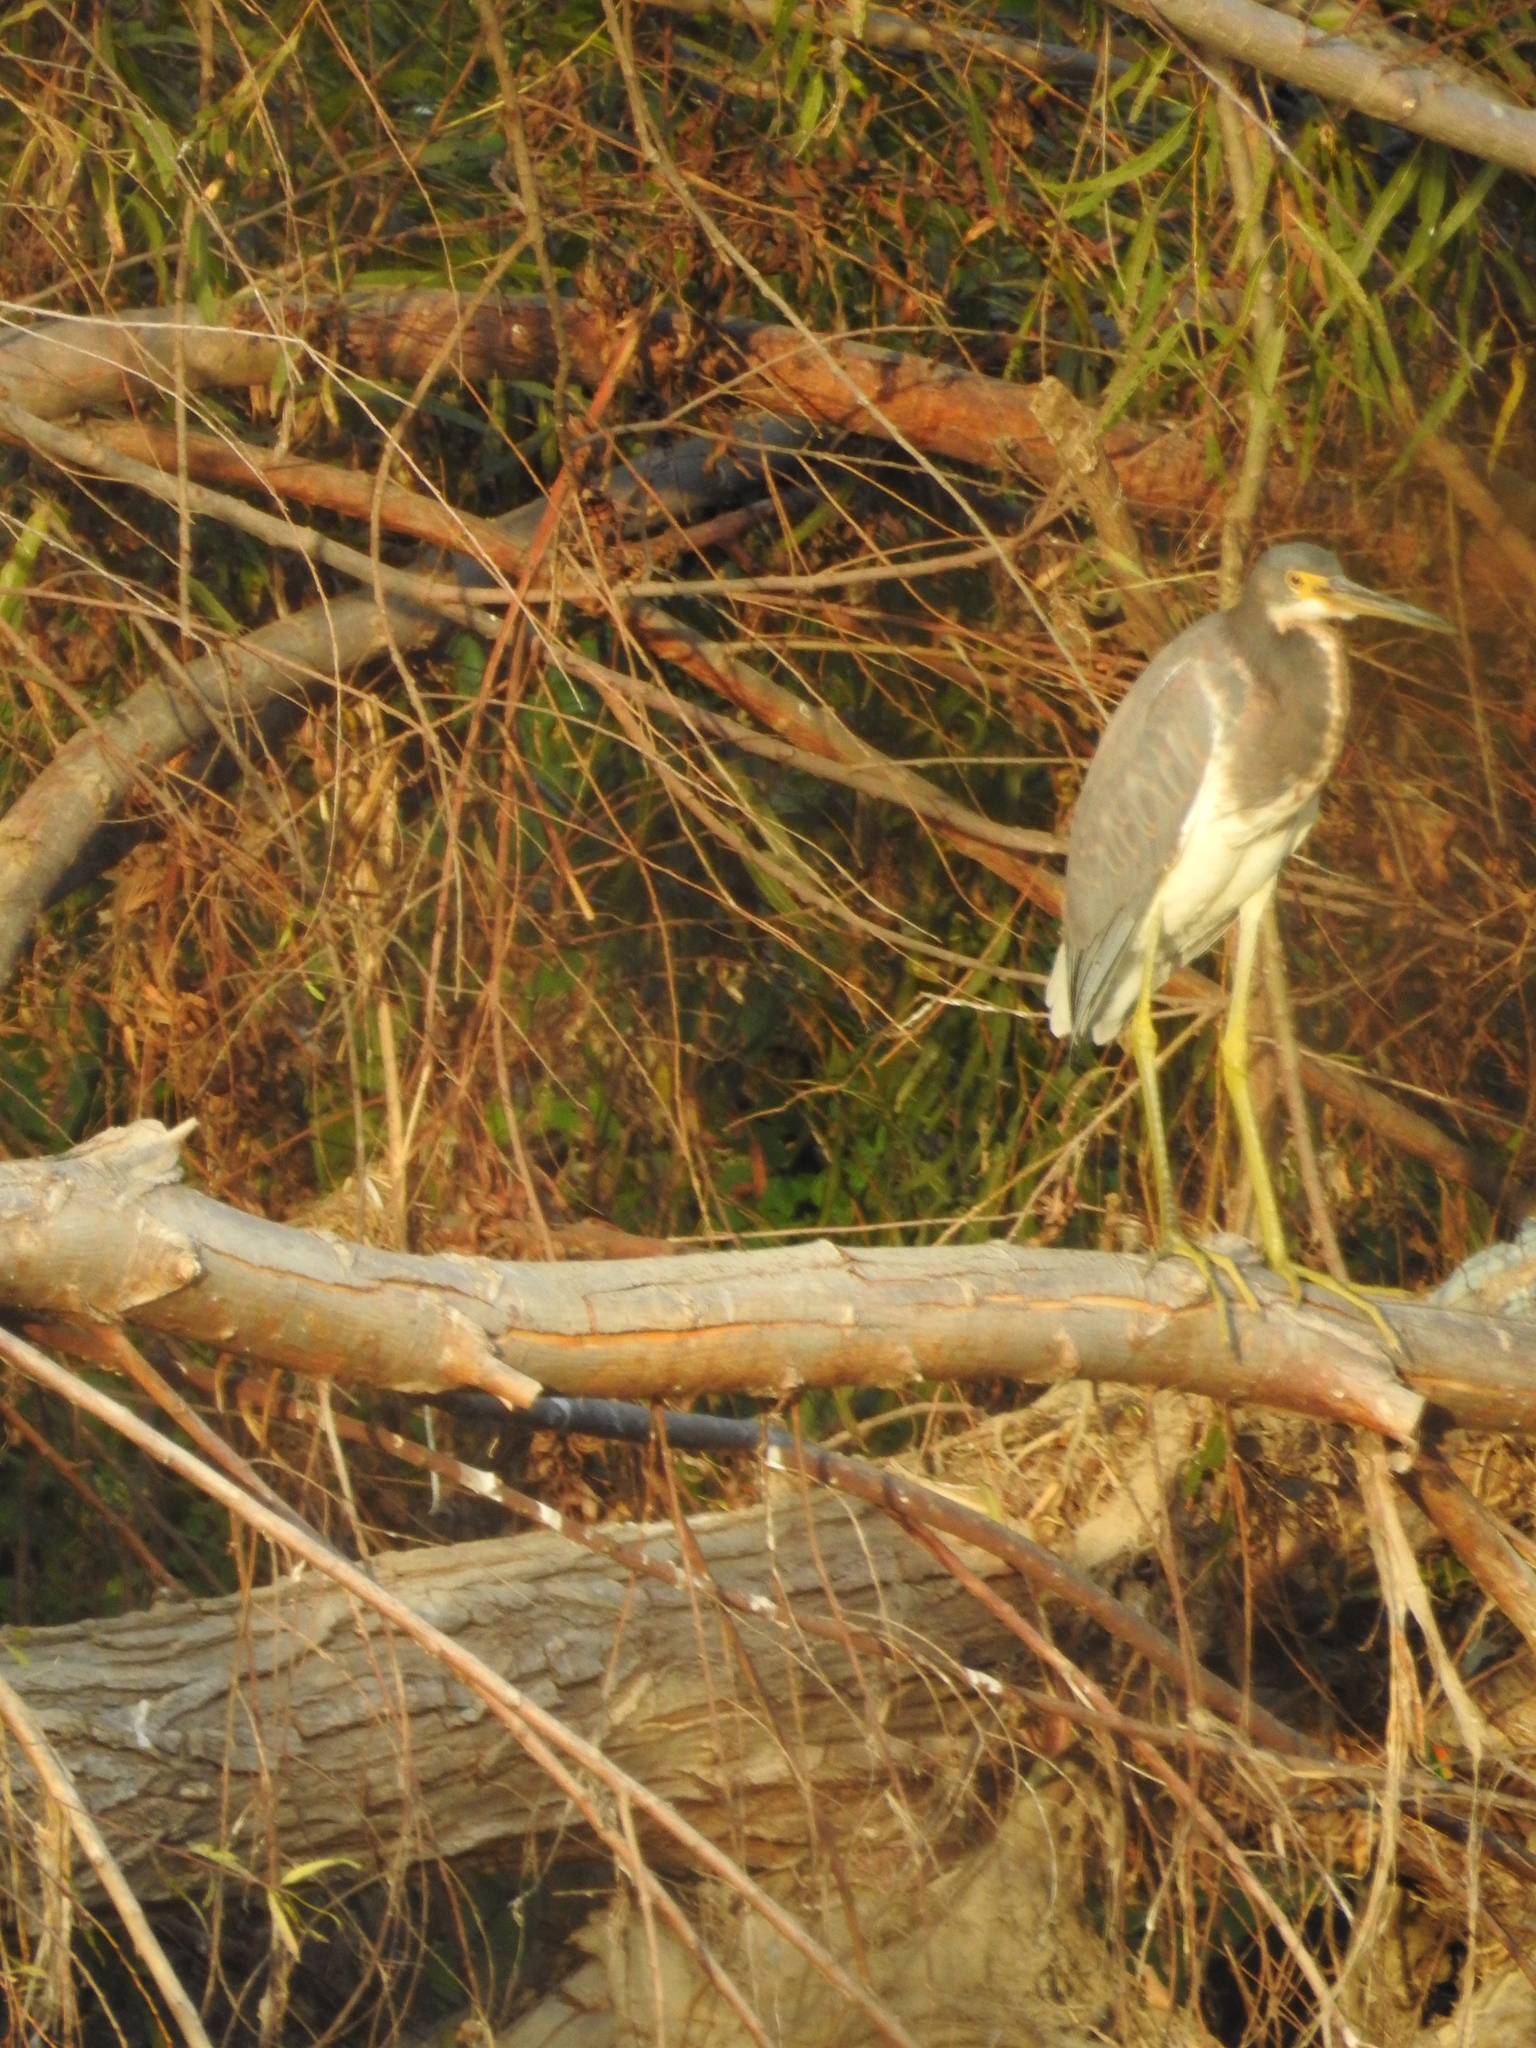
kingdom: Animalia
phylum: Chordata
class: Aves
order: Pelecaniformes
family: Ardeidae
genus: Egretta
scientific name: Egretta tricolor
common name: Tricolored heron
